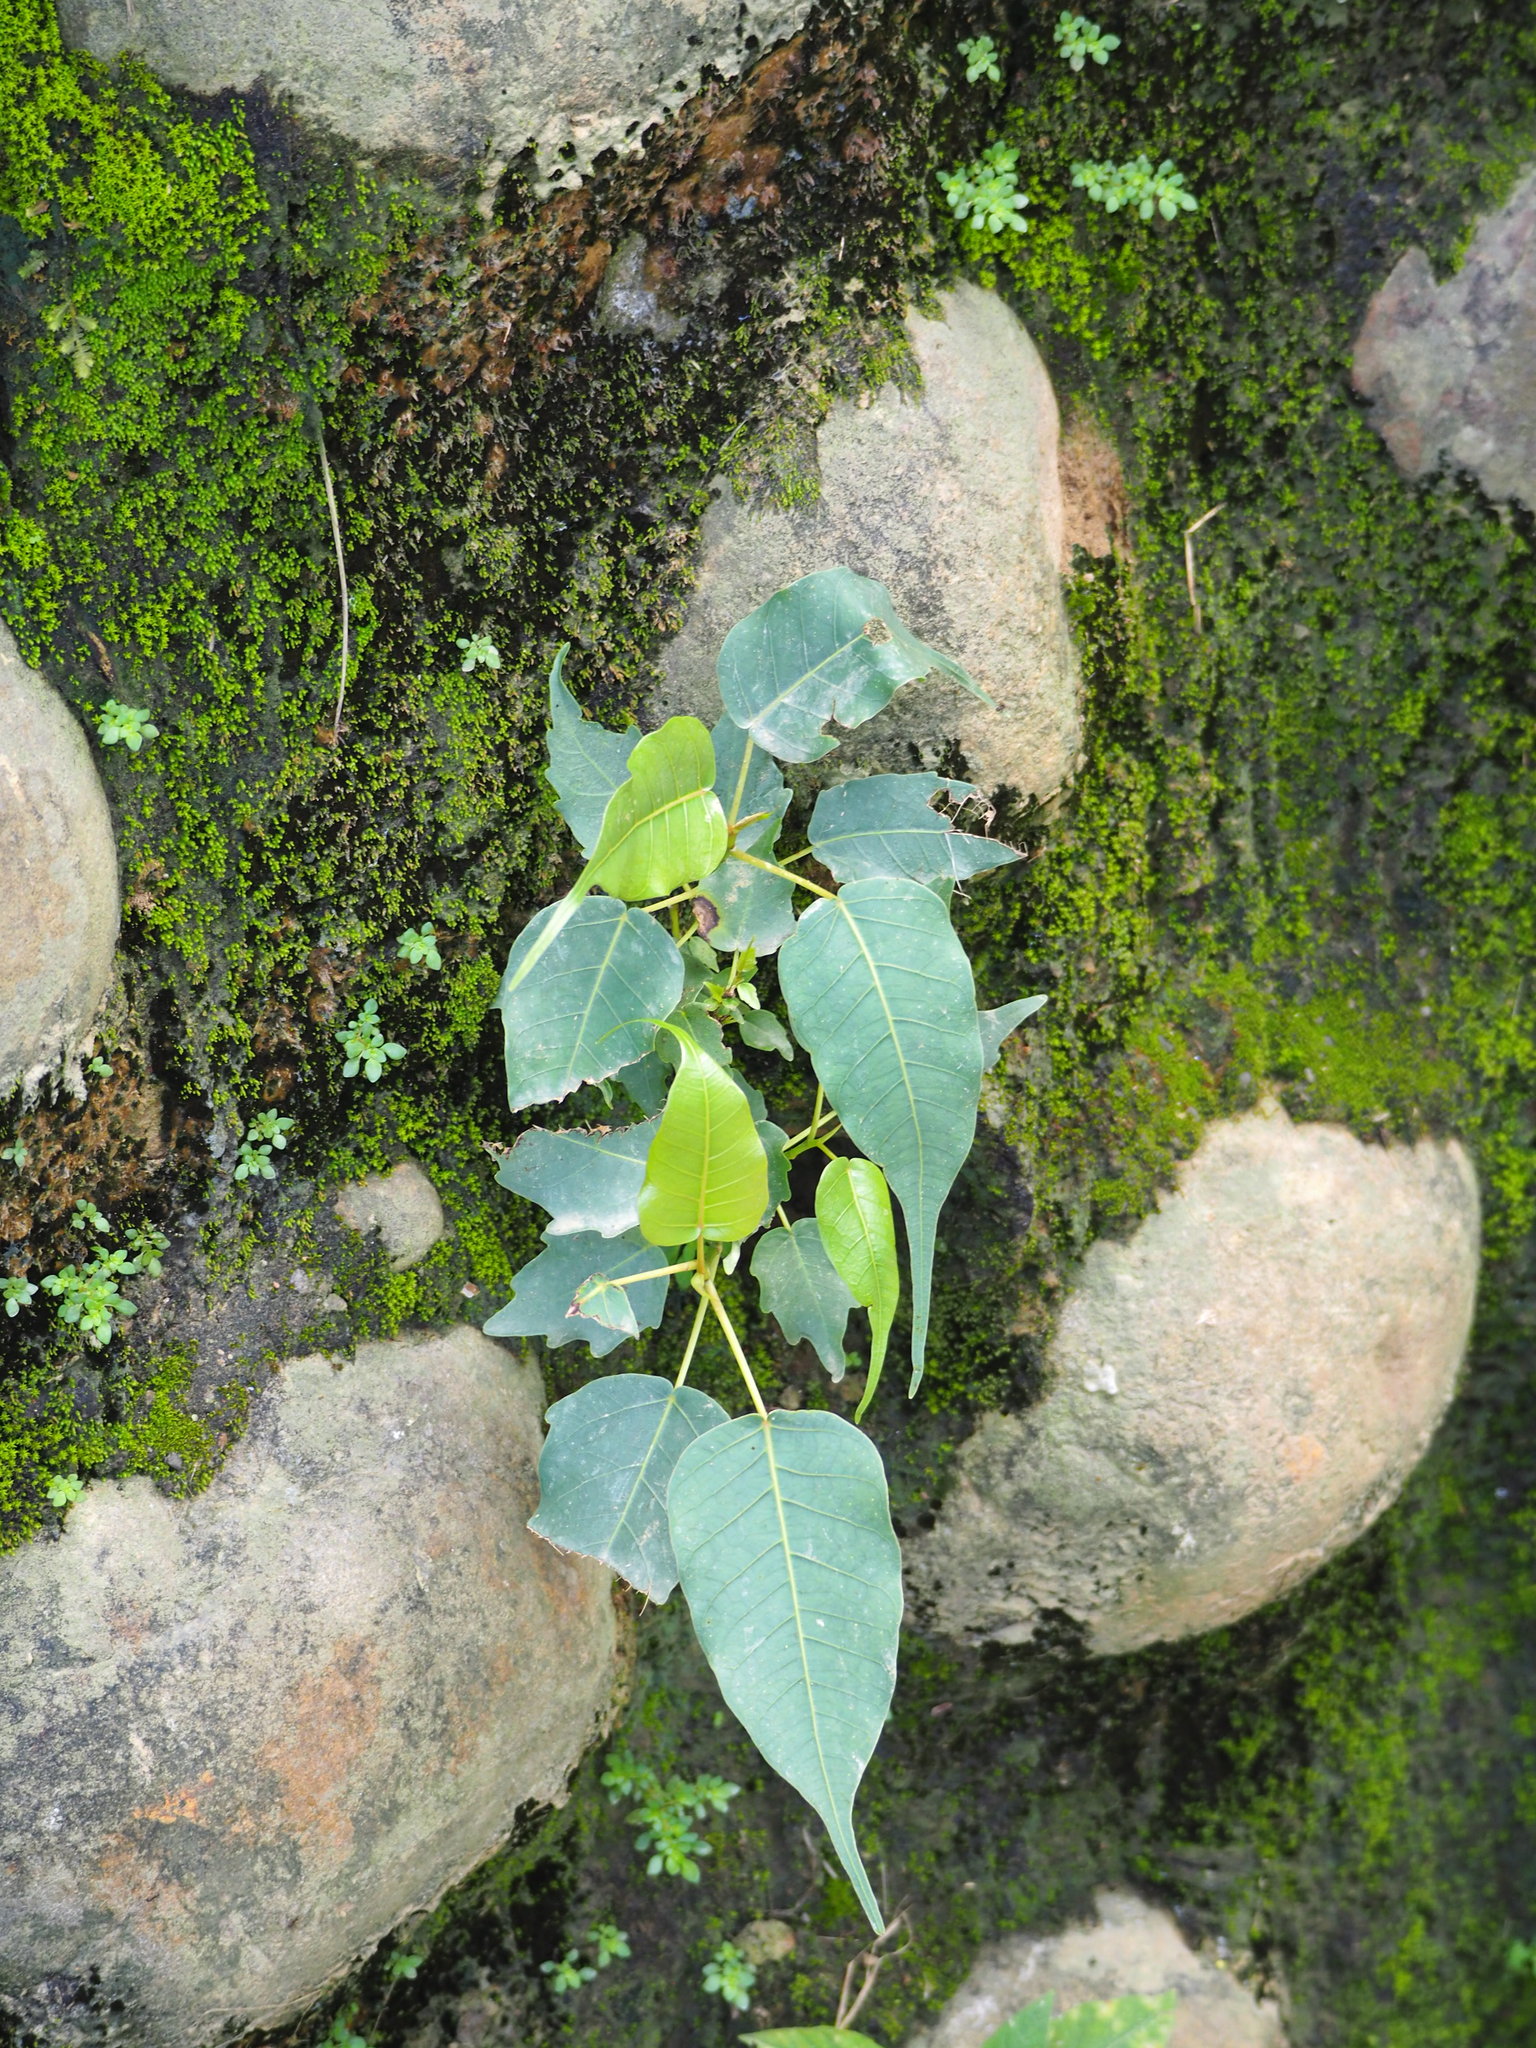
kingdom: Plantae
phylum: Tracheophyta
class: Magnoliopsida
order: Rosales
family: Moraceae
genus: Ficus
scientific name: Ficus religiosa
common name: Bodhi tree
